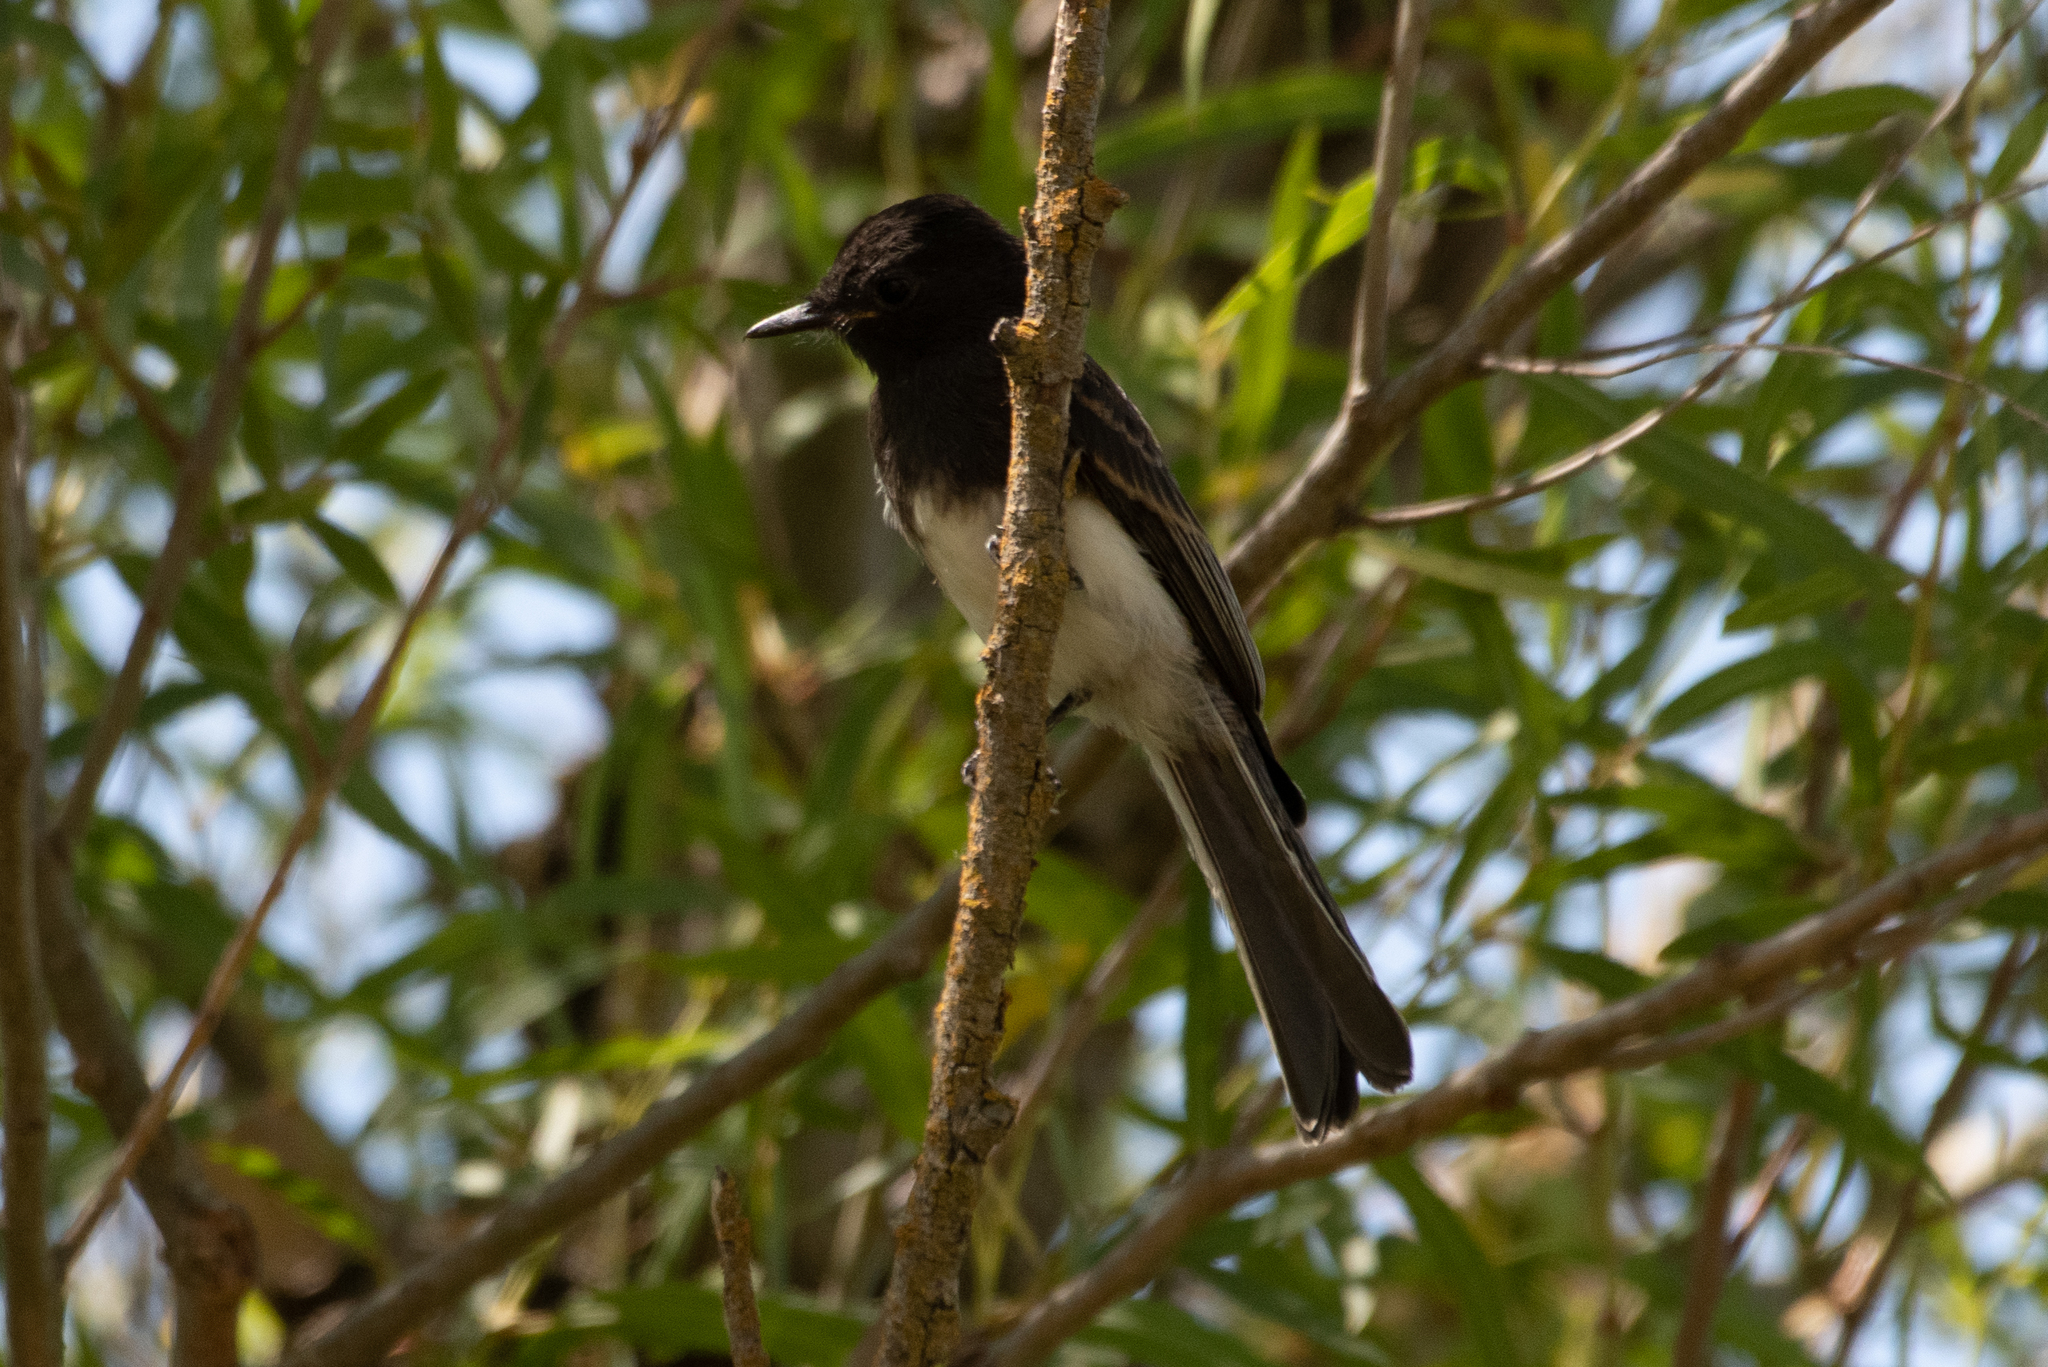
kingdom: Animalia
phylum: Chordata
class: Aves
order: Passeriformes
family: Tyrannidae
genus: Sayornis
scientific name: Sayornis nigricans
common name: Black phoebe
